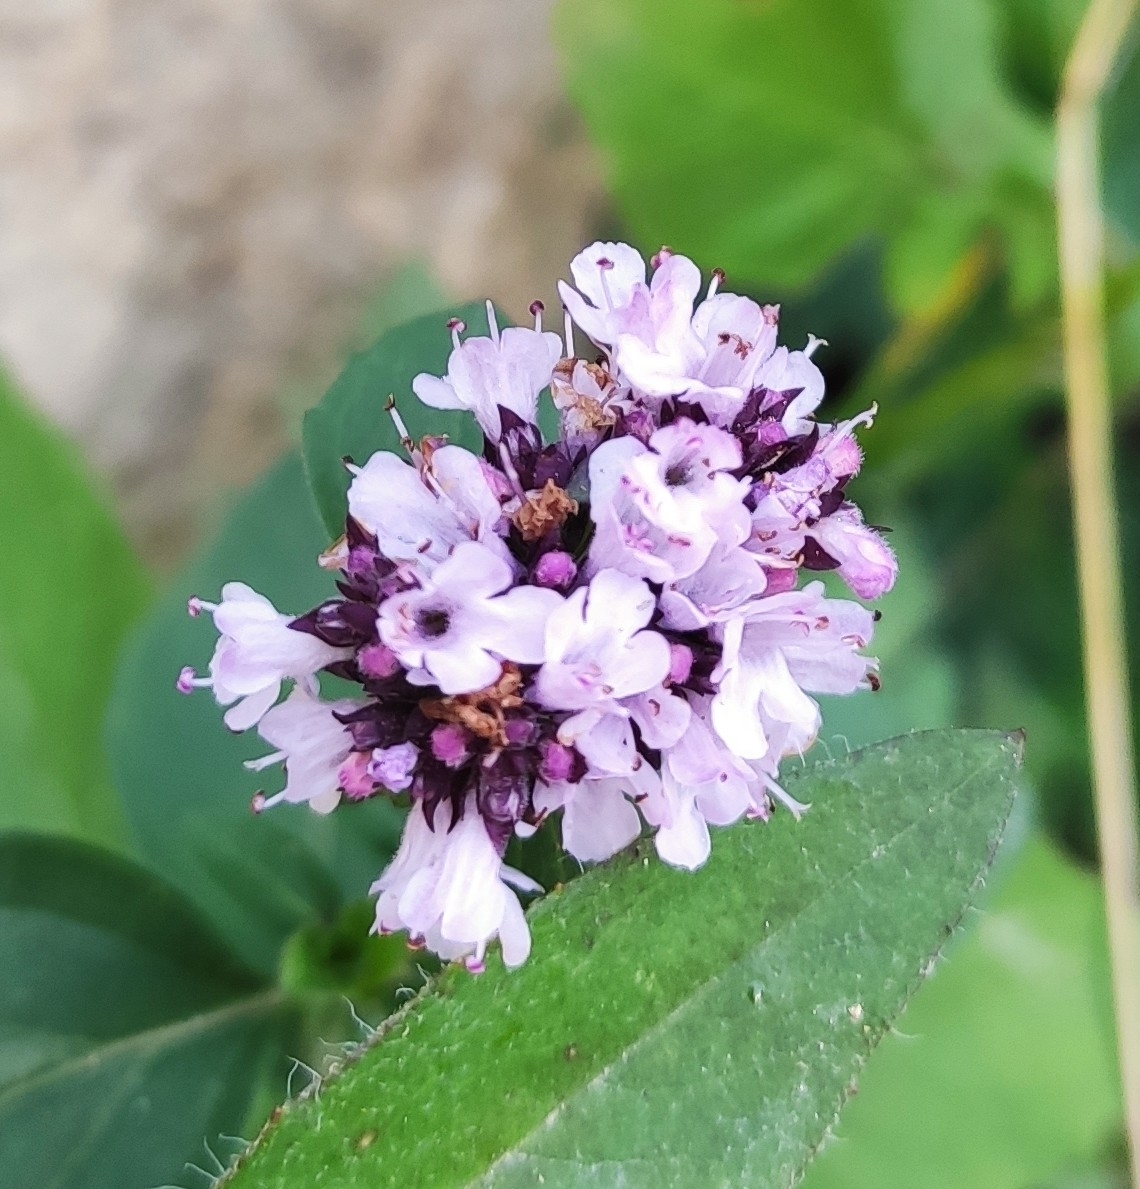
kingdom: Plantae
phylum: Tracheophyta
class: Magnoliopsida
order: Lamiales
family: Lamiaceae
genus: Origanum
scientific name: Origanum vulgare
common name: Wild marjoram
